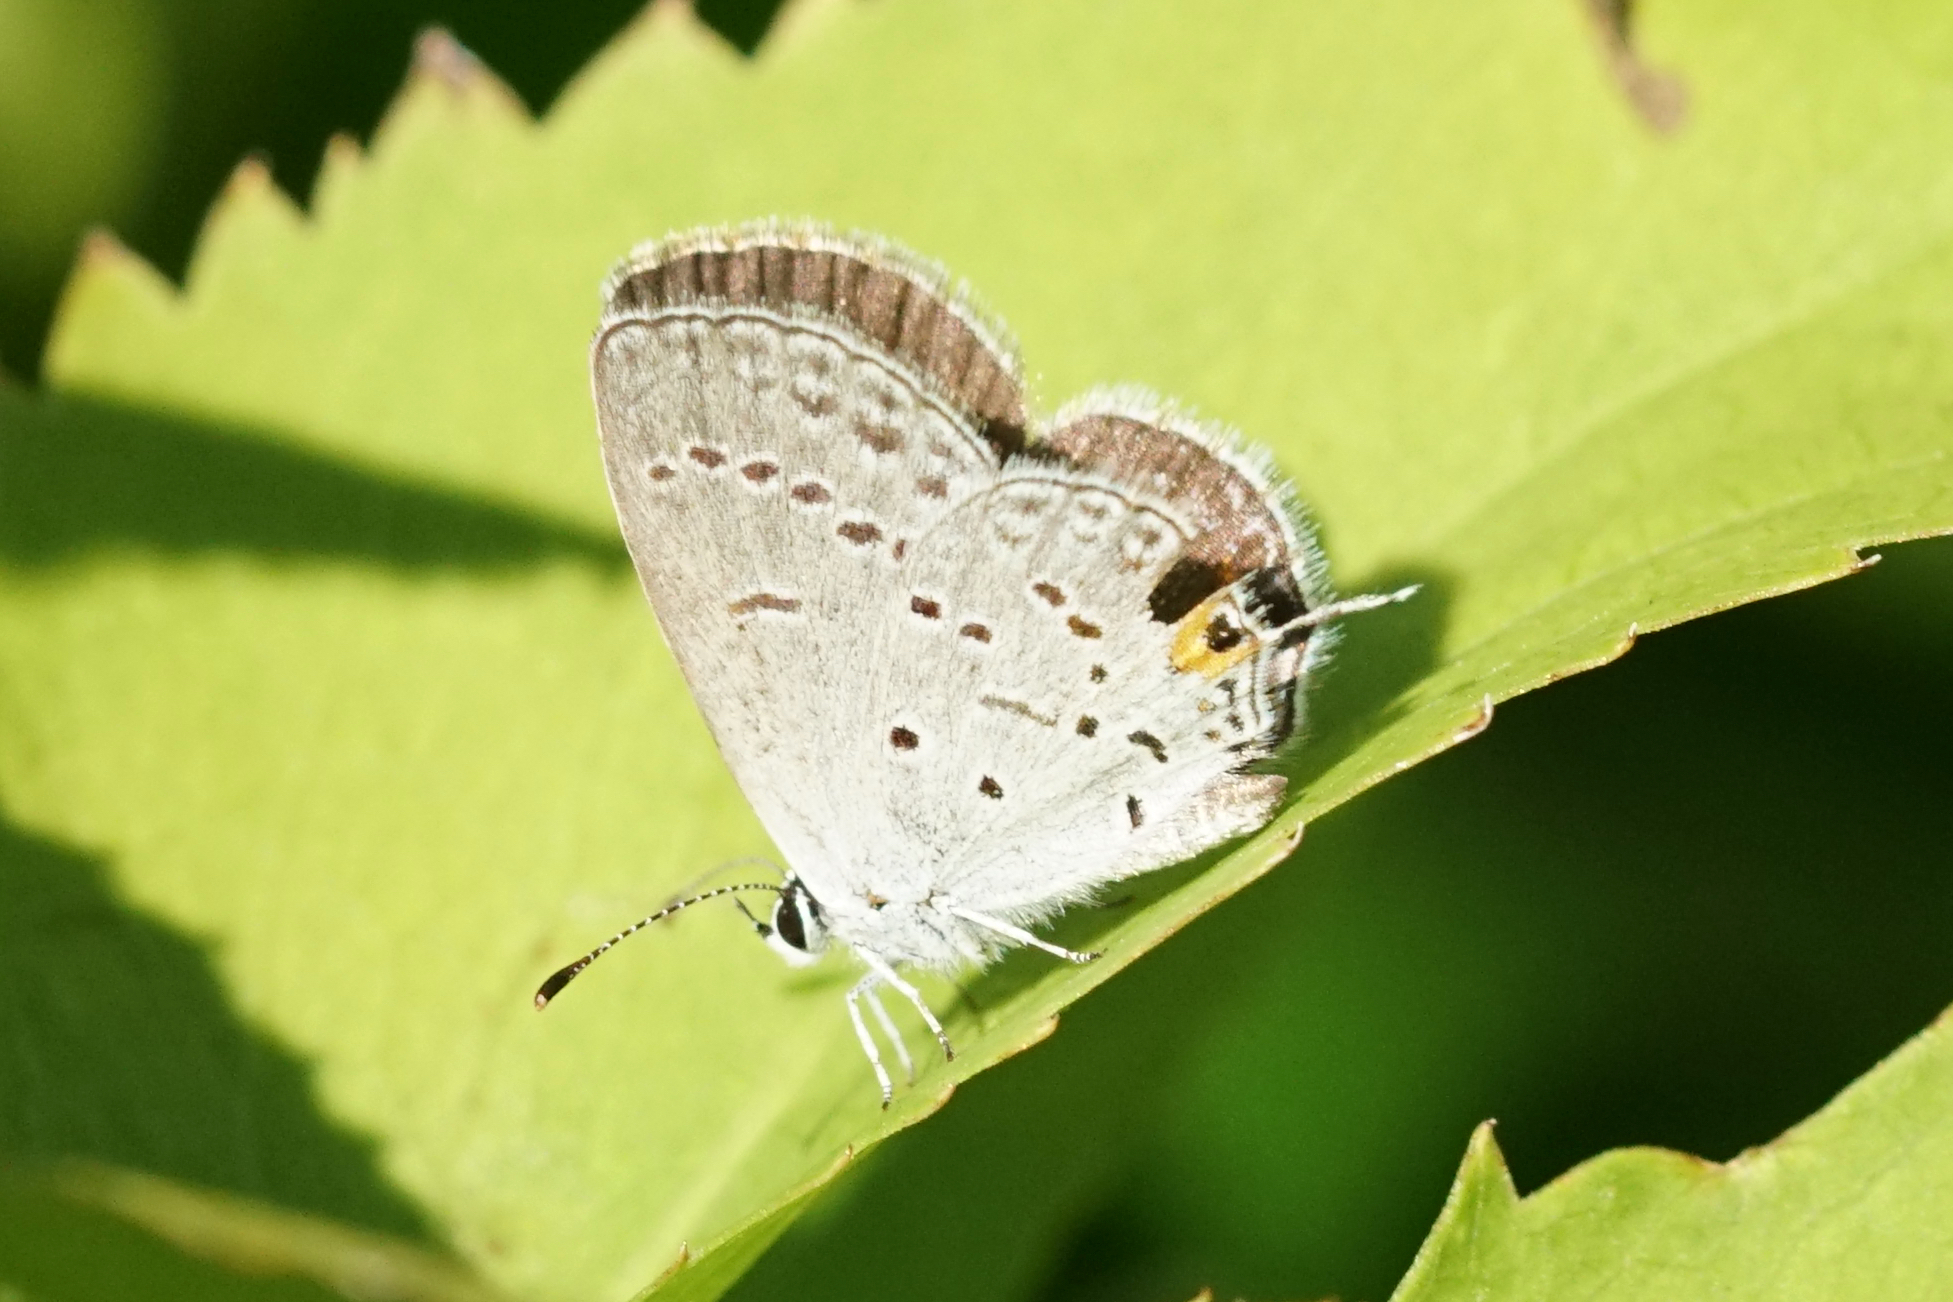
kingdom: Animalia
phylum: Arthropoda
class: Insecta
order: Lepidoptera
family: Lycaenidae
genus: Elkalyce
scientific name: Elkalyce comyntas
